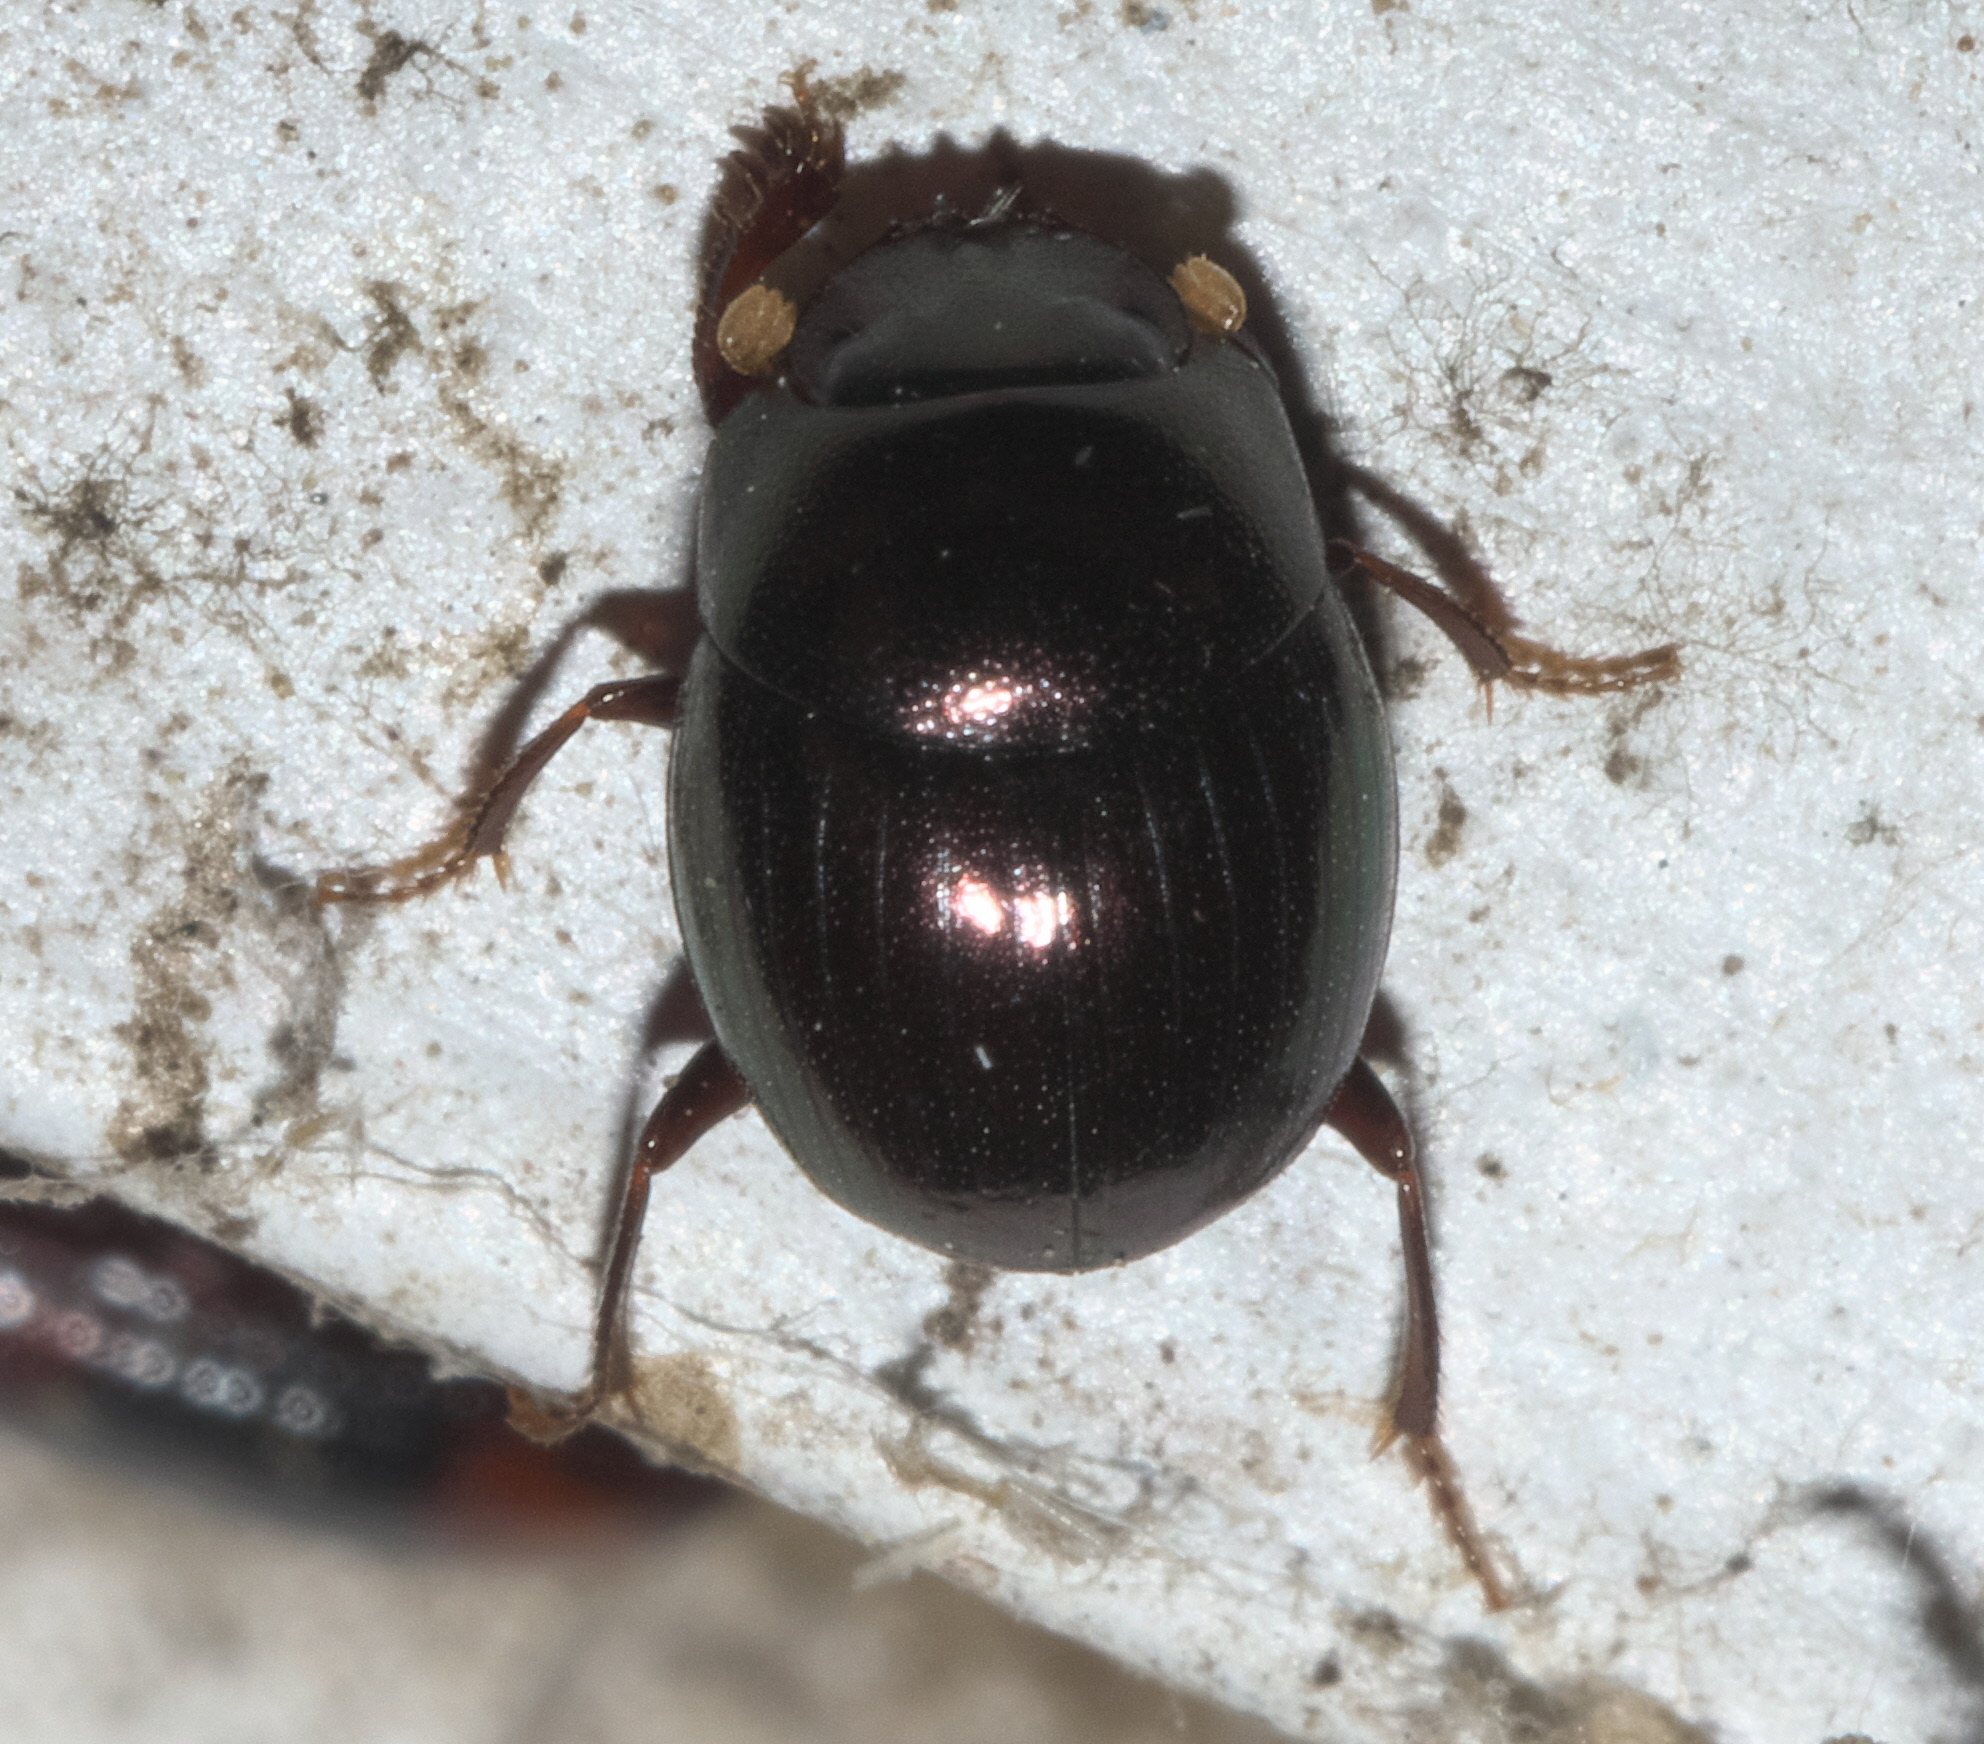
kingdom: Animalia
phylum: Arthropoda
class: Insecta
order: Coleoptera
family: Scarabaeidae
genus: Pseudocanthon
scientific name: Pseudocanthon perplexus
